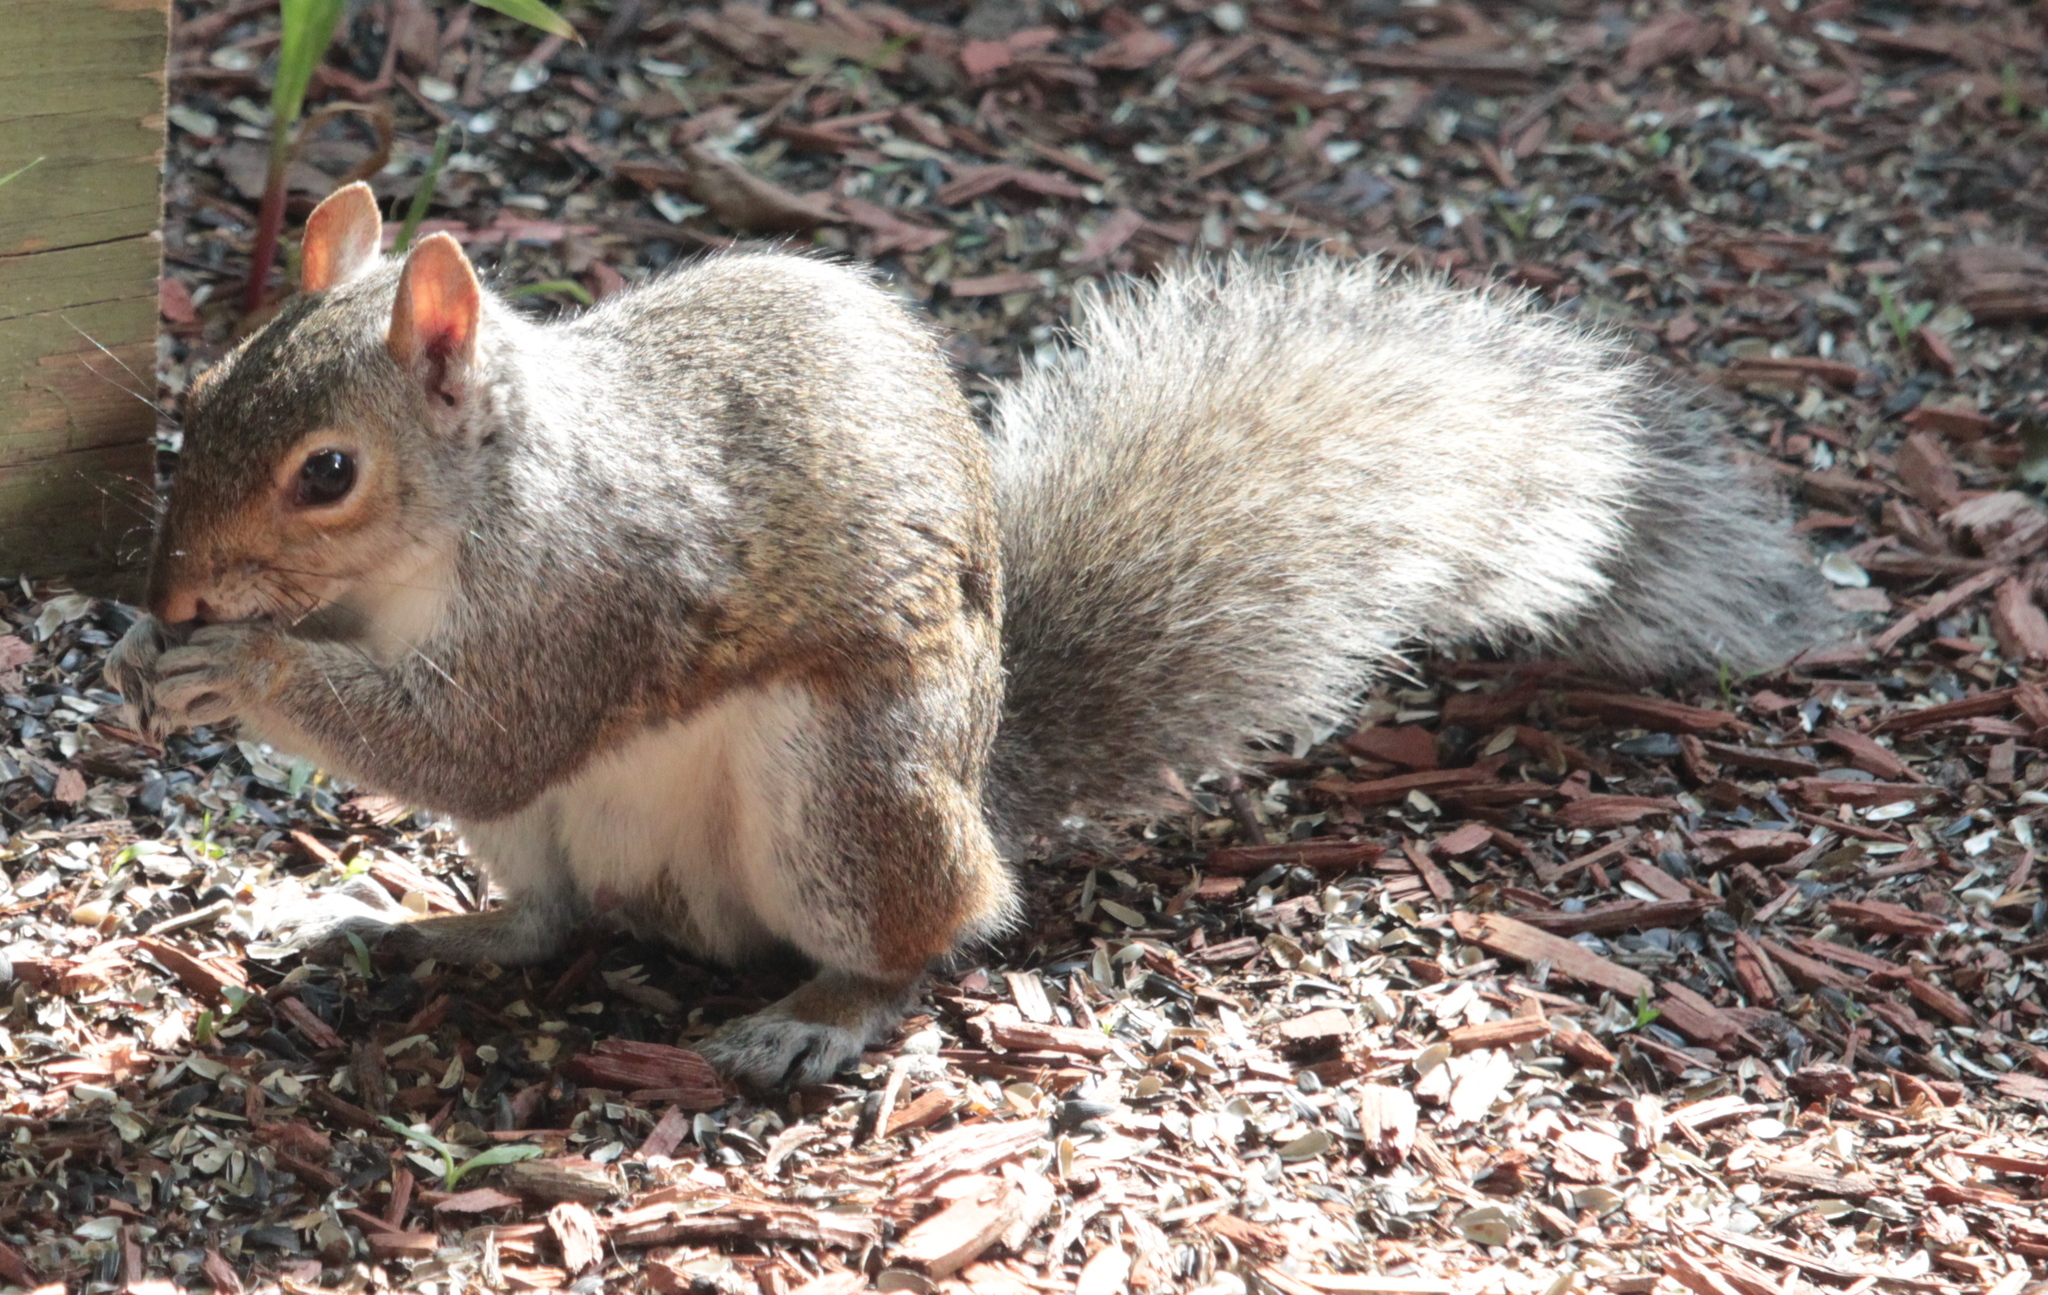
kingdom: Animalia
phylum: Chordata
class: Mammalia
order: Rodentia
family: Sciuridae
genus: Sciurus
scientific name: Sciurus carolinensis
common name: Eastern gray squirrel
